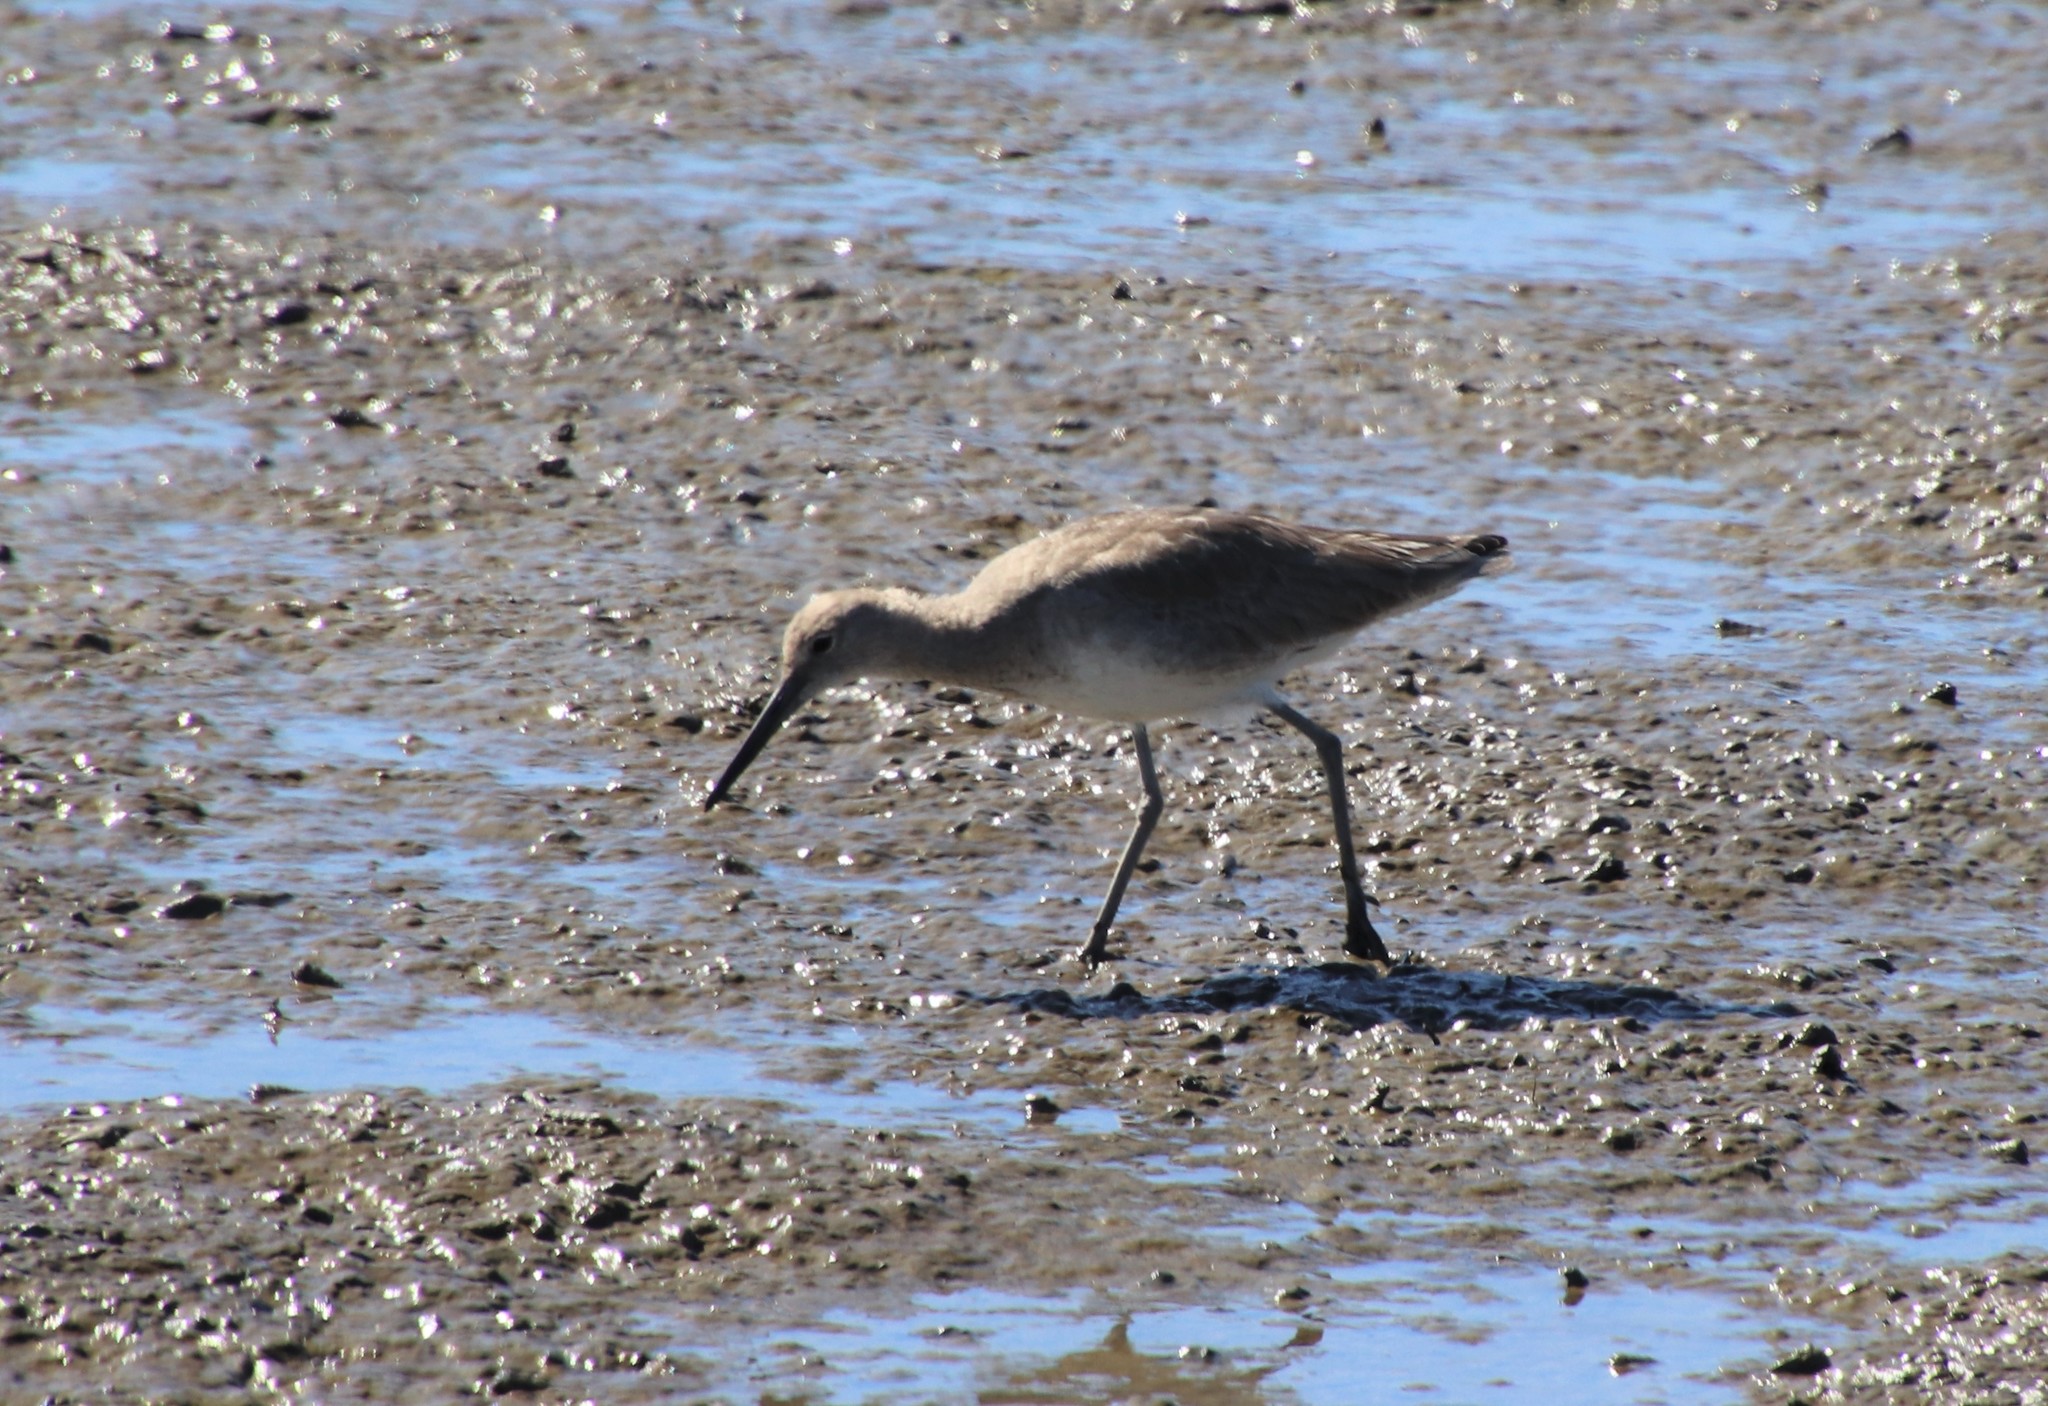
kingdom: Animalia
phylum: Chordata
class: Aves
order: Charadriiformes
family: Scolopacidae
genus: Tringa
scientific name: Tringa semipalmata
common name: Willet
